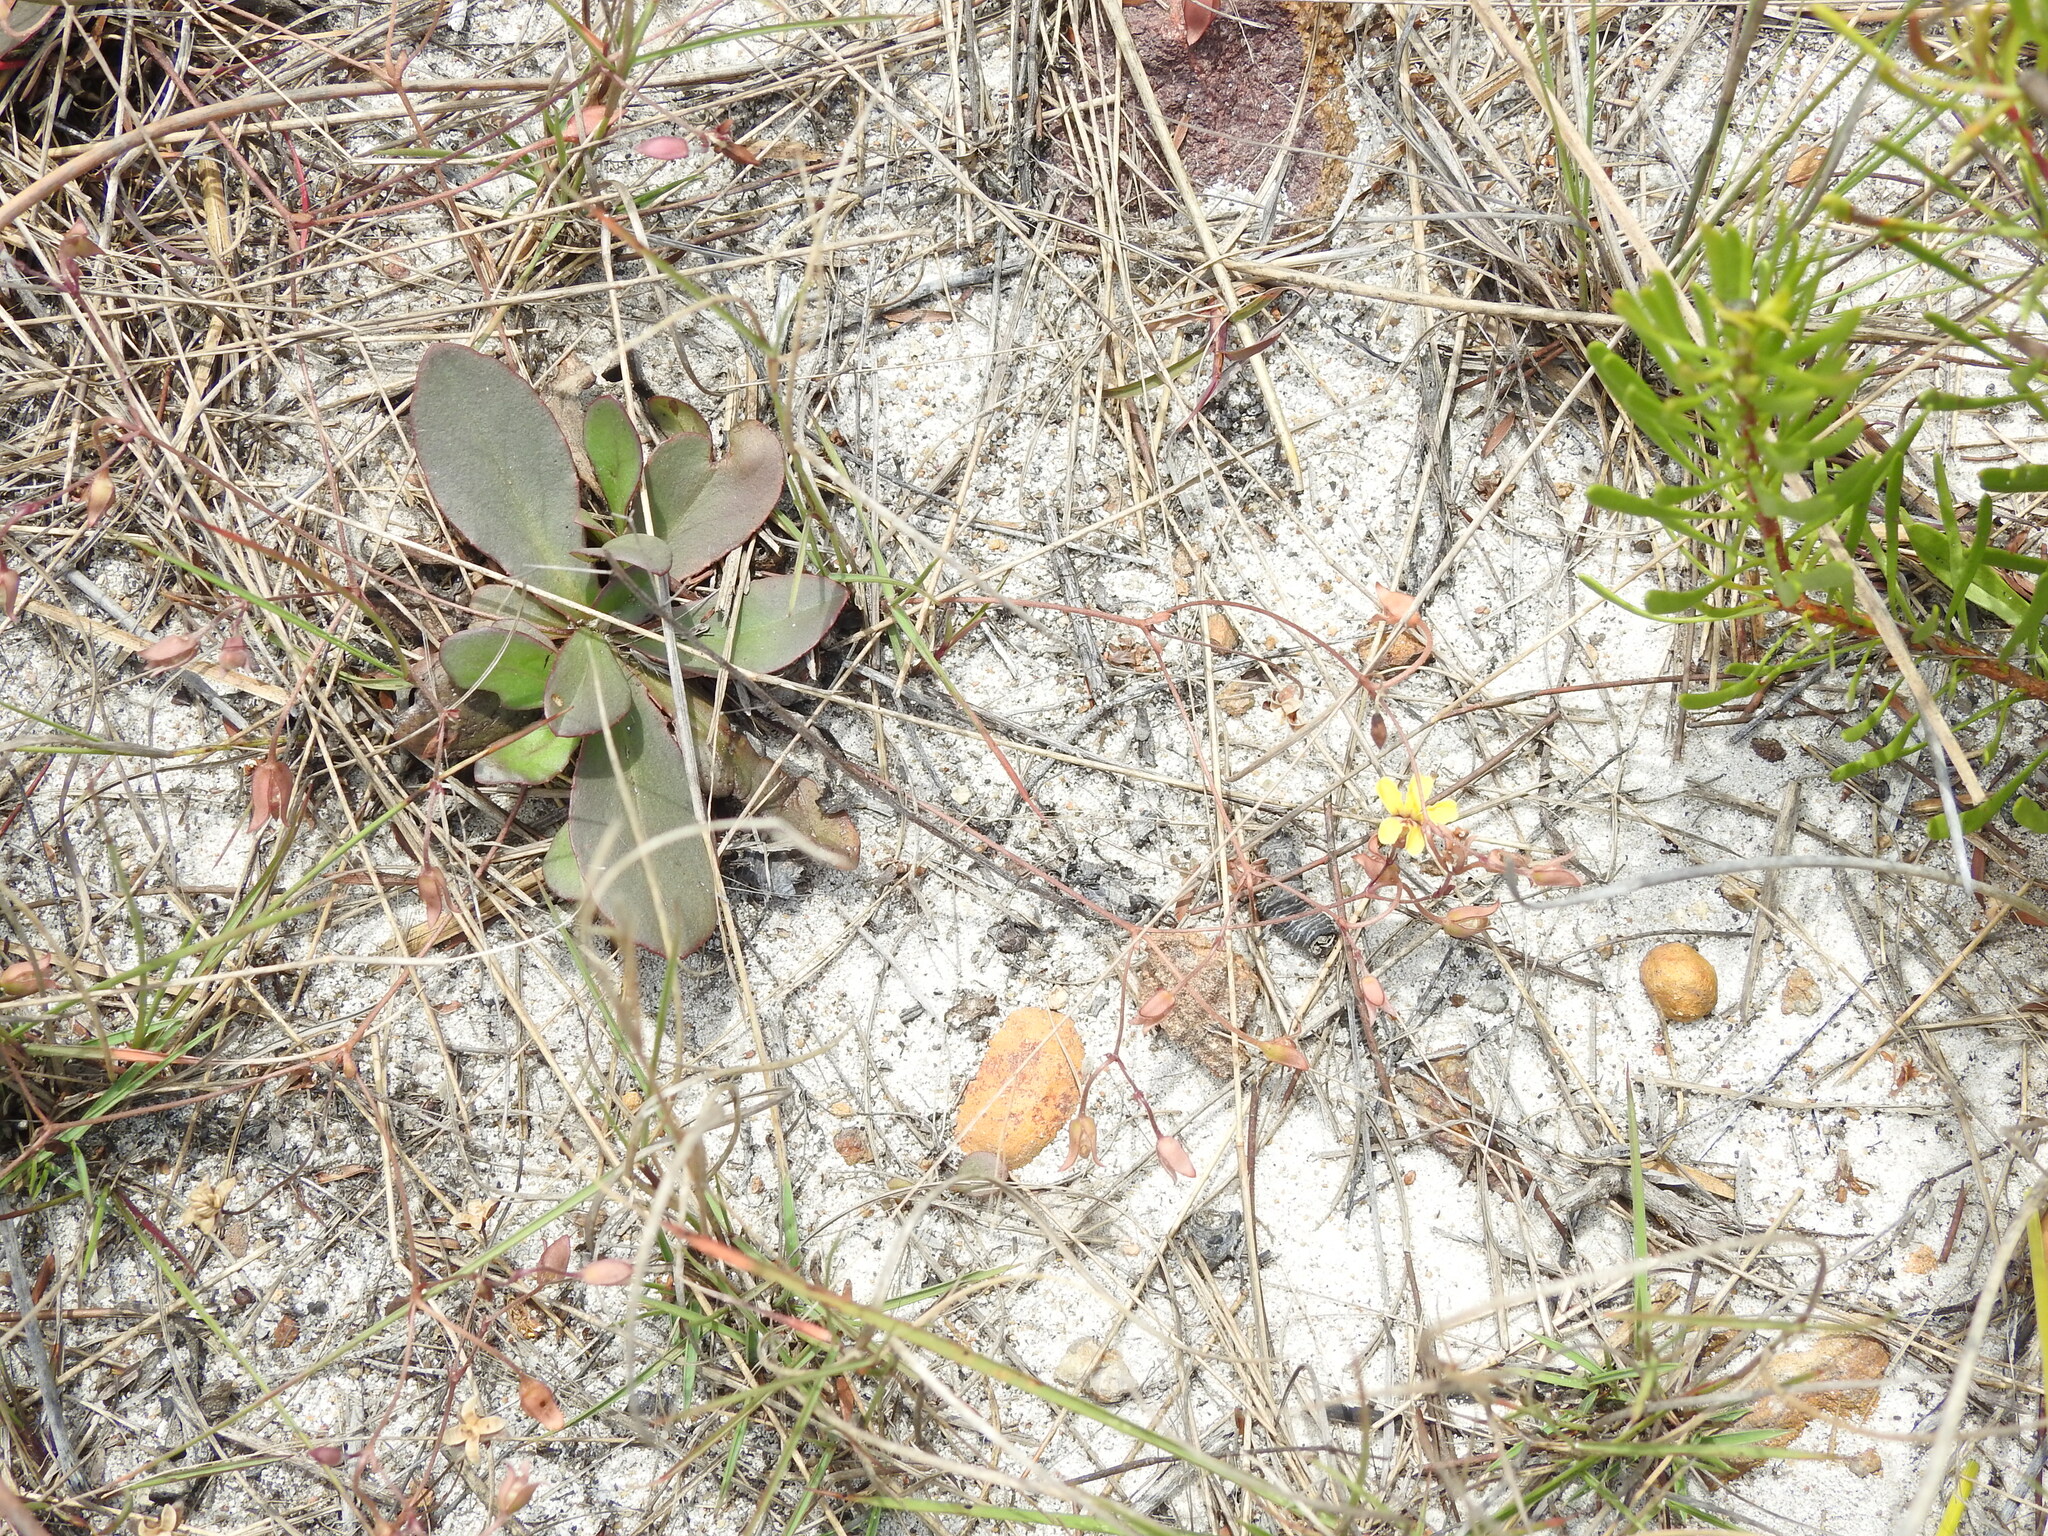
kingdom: Plantae
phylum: Tracheophyta
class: Magnoliopsida
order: Asterales
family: Goodeniaceae
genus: Goodenia
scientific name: Goodenia mystrophylla
